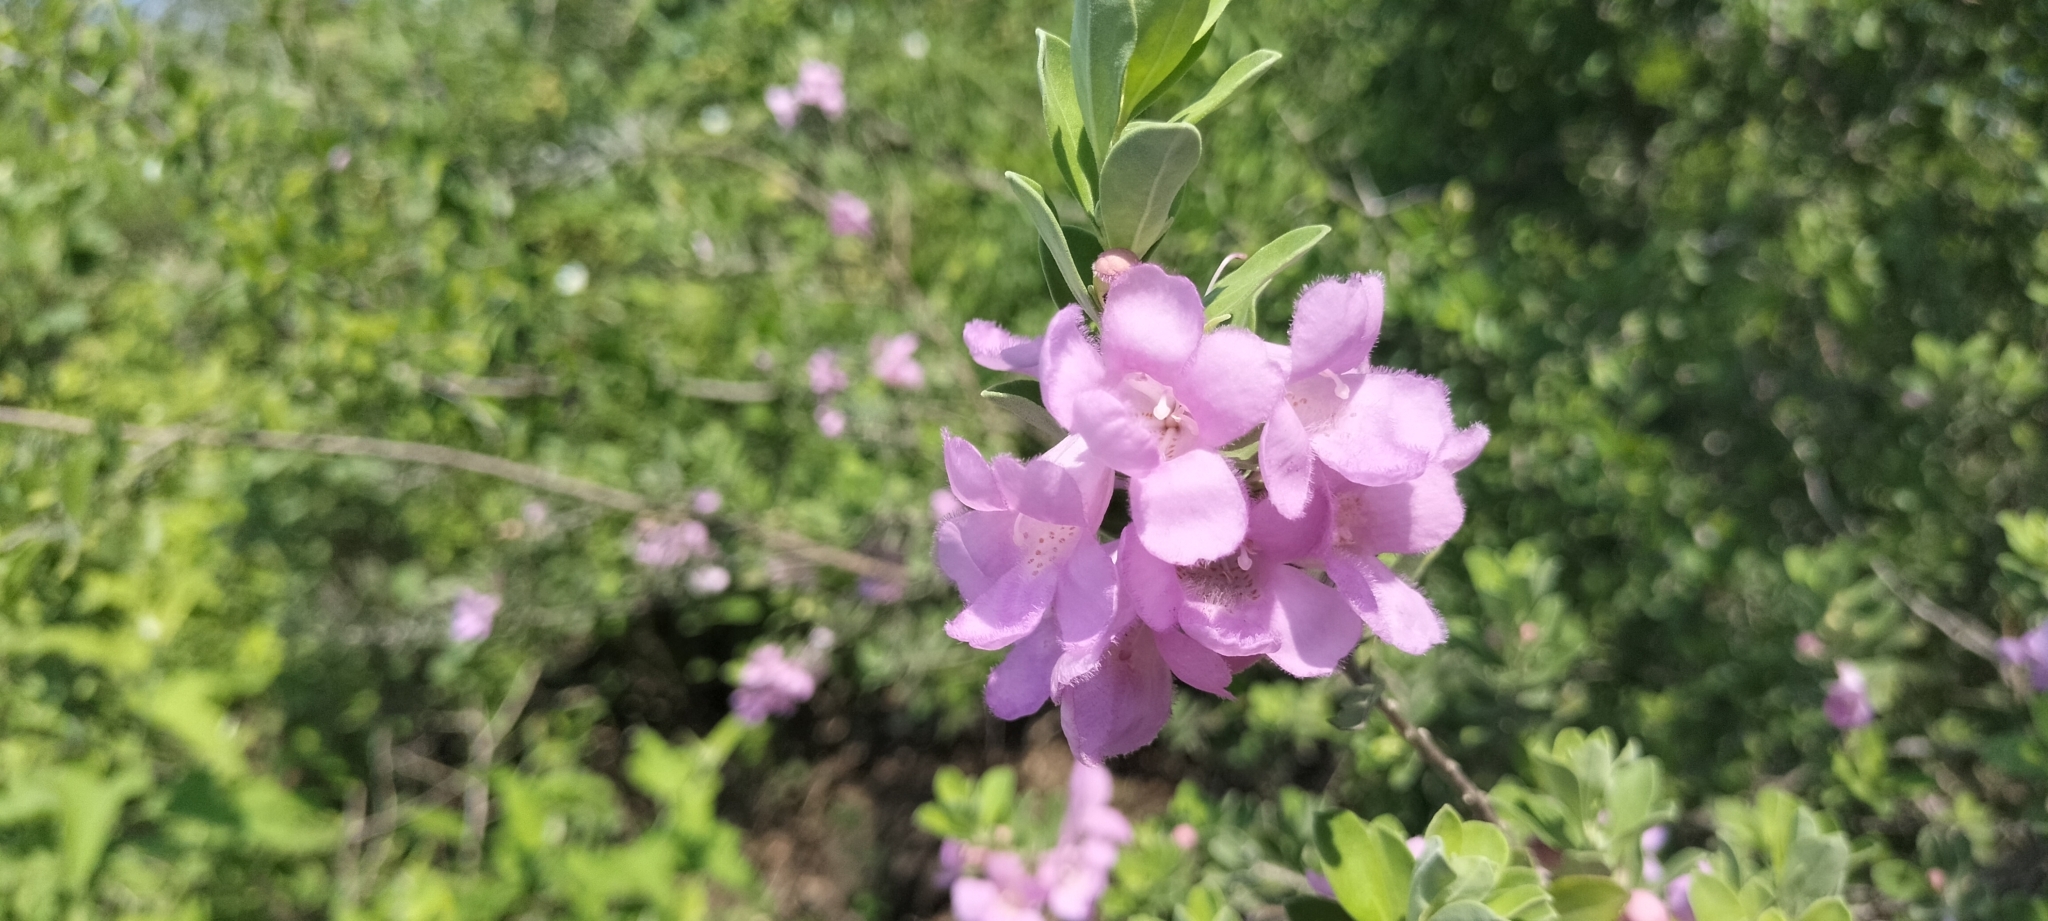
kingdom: Plantae
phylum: Tracheophyta
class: Magnoliopsida
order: Lamiales
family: Scrophulariaceae
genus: Leucophyllum
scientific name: Leucophyllum frutescens
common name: Texas silverleaf
